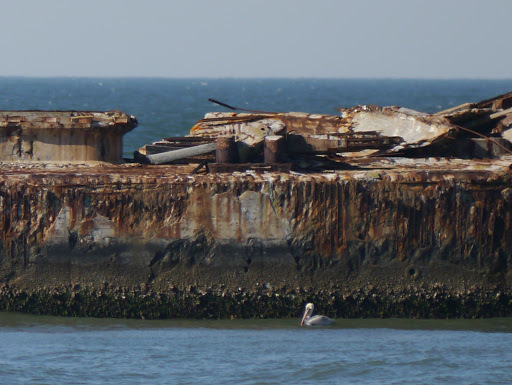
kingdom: Animalia
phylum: Chordata
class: Aves
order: Pelecaniformes
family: Pelecanidae
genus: Pelecanus
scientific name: Pelecanus occidentalis
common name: Brown pelican
